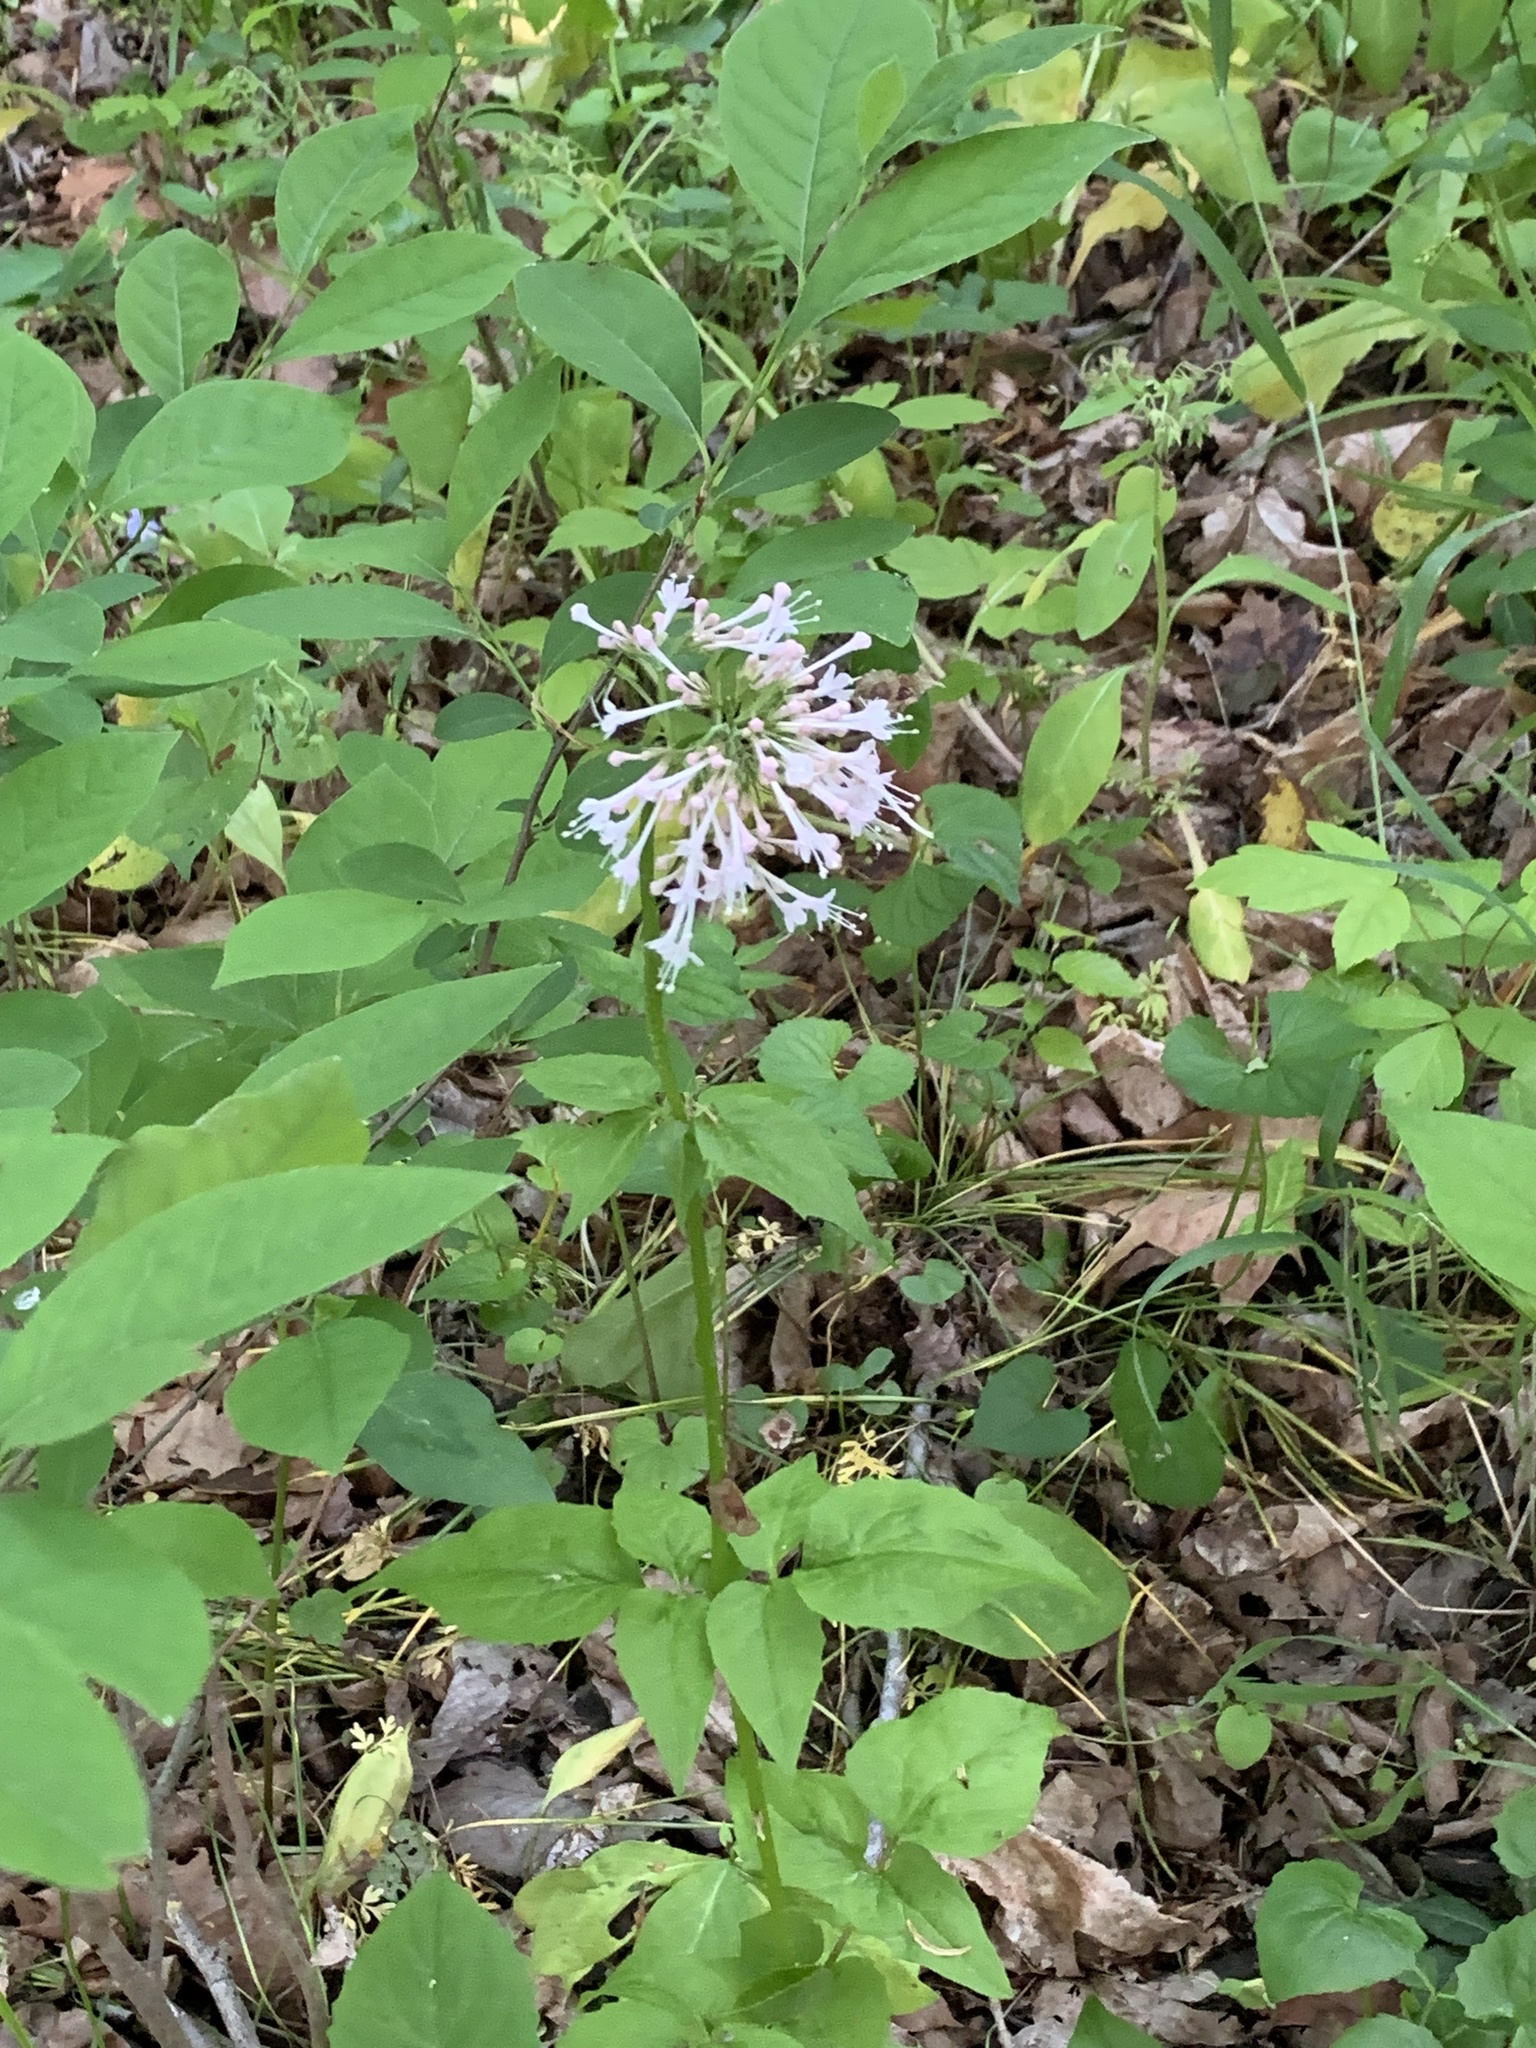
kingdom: Plantae
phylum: Tracheophyta
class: Magnoliopsida
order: Dipsacales
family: Caprifoliaceae
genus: Valeriana
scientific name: Valeriana pauciflora
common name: Long-tube valeriana
